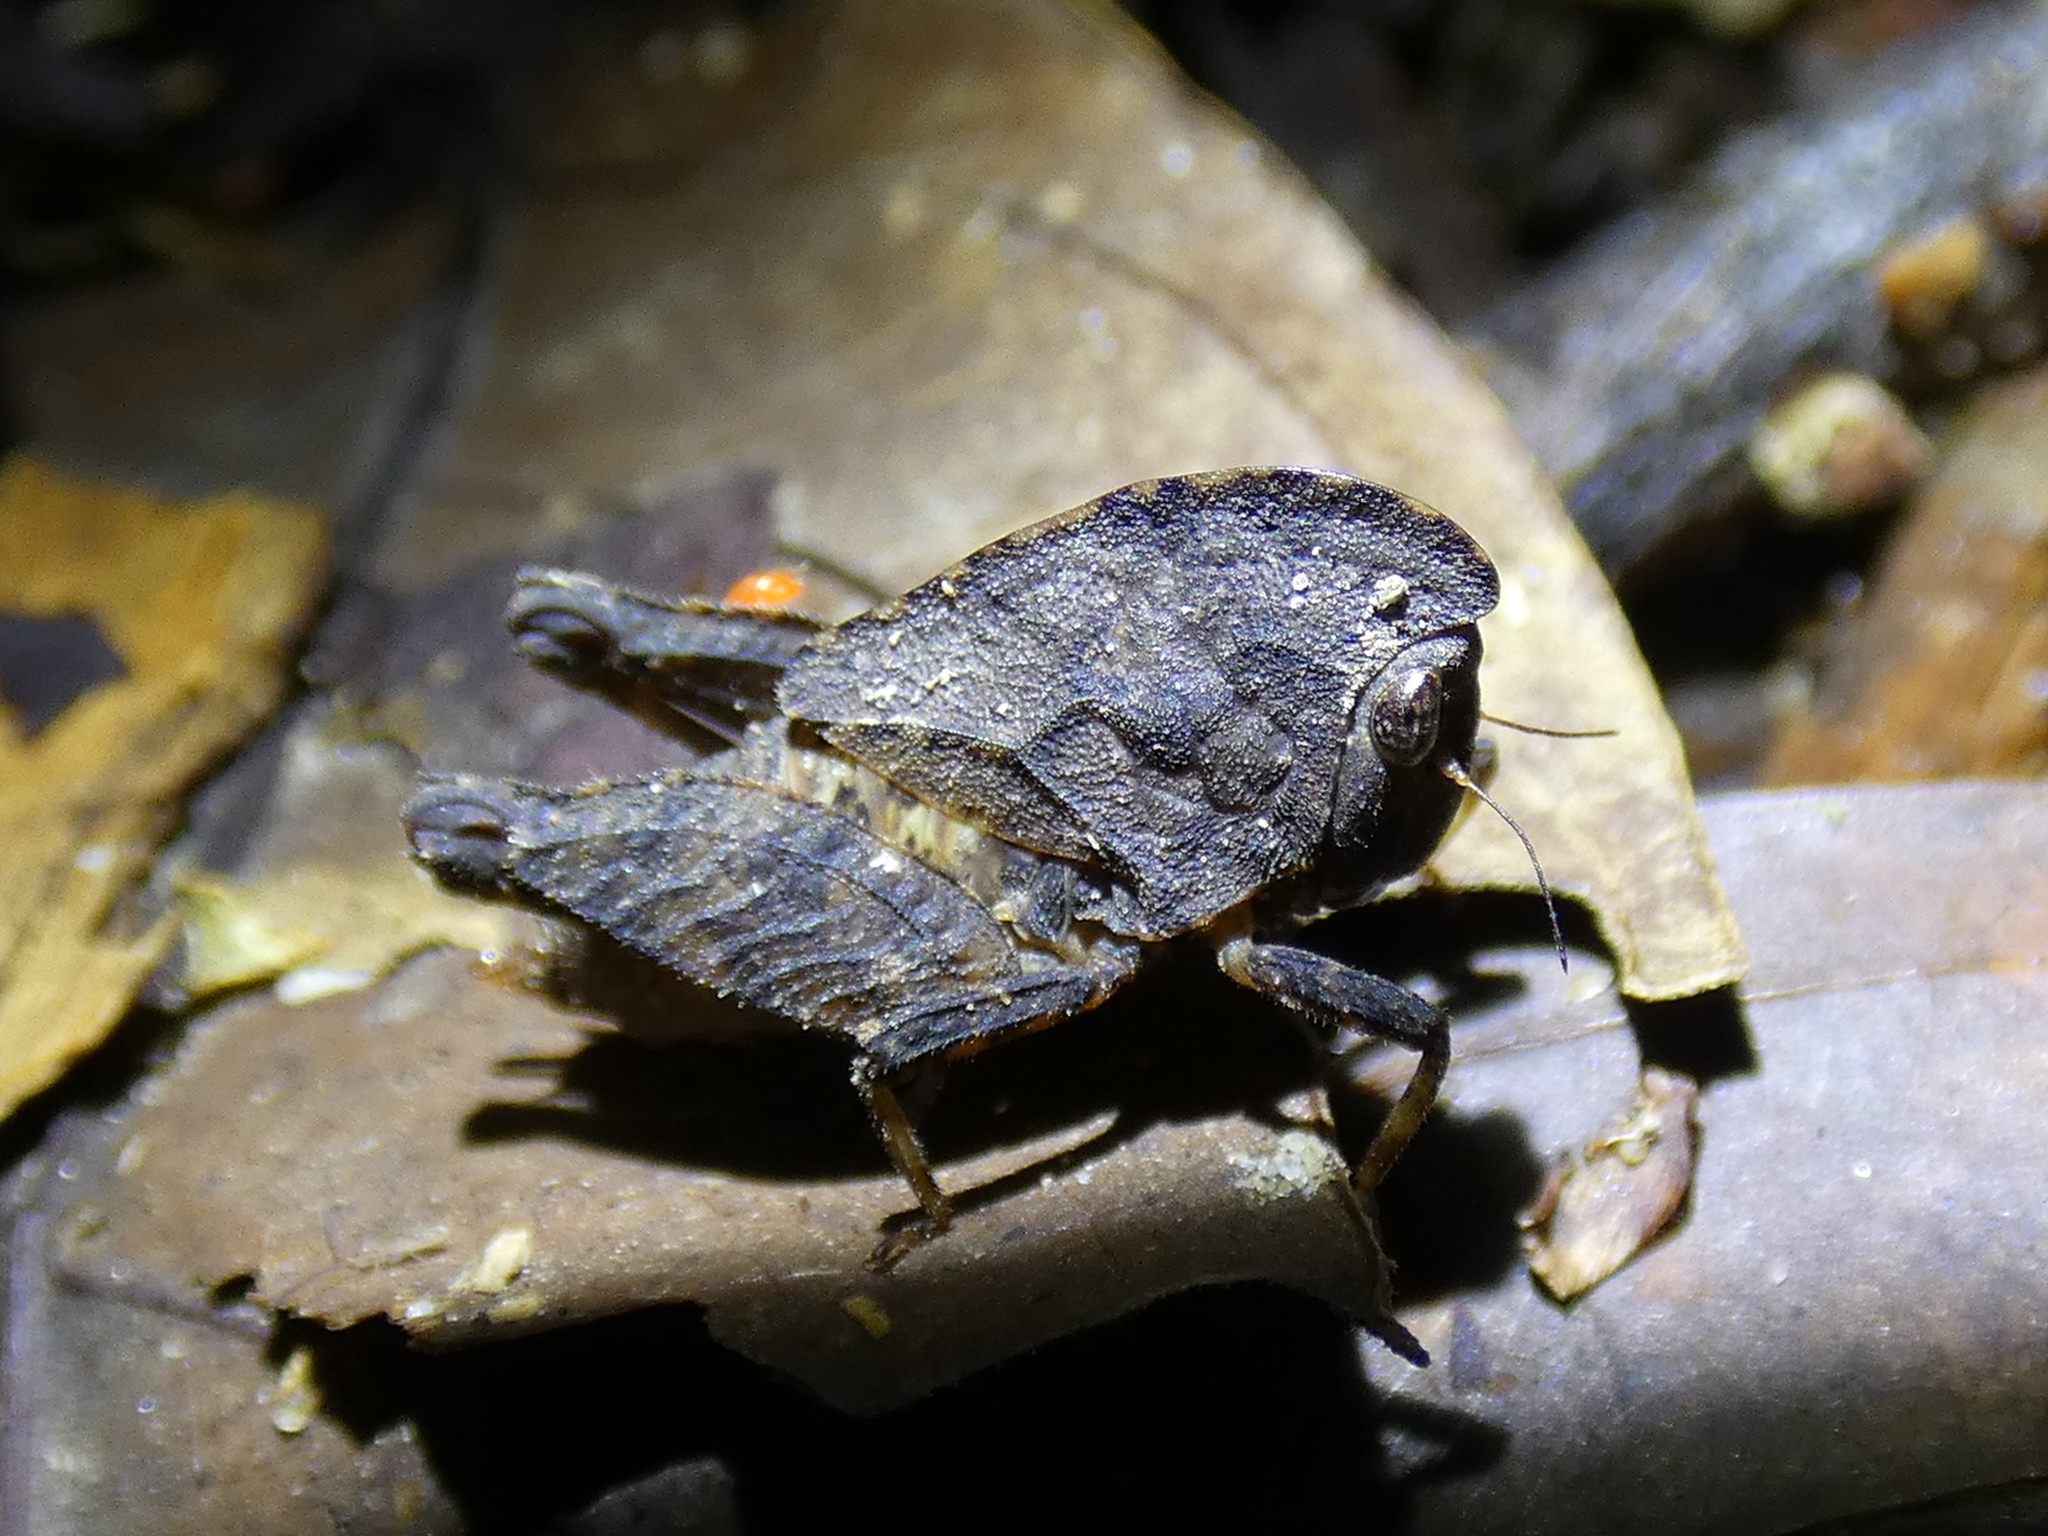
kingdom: Animalia
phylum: Arthropoda
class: Insecta
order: Orthoptera
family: Tetrigidae
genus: Selivinga
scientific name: Selivinga tribulata
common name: Tribulation helmed groundhopper
